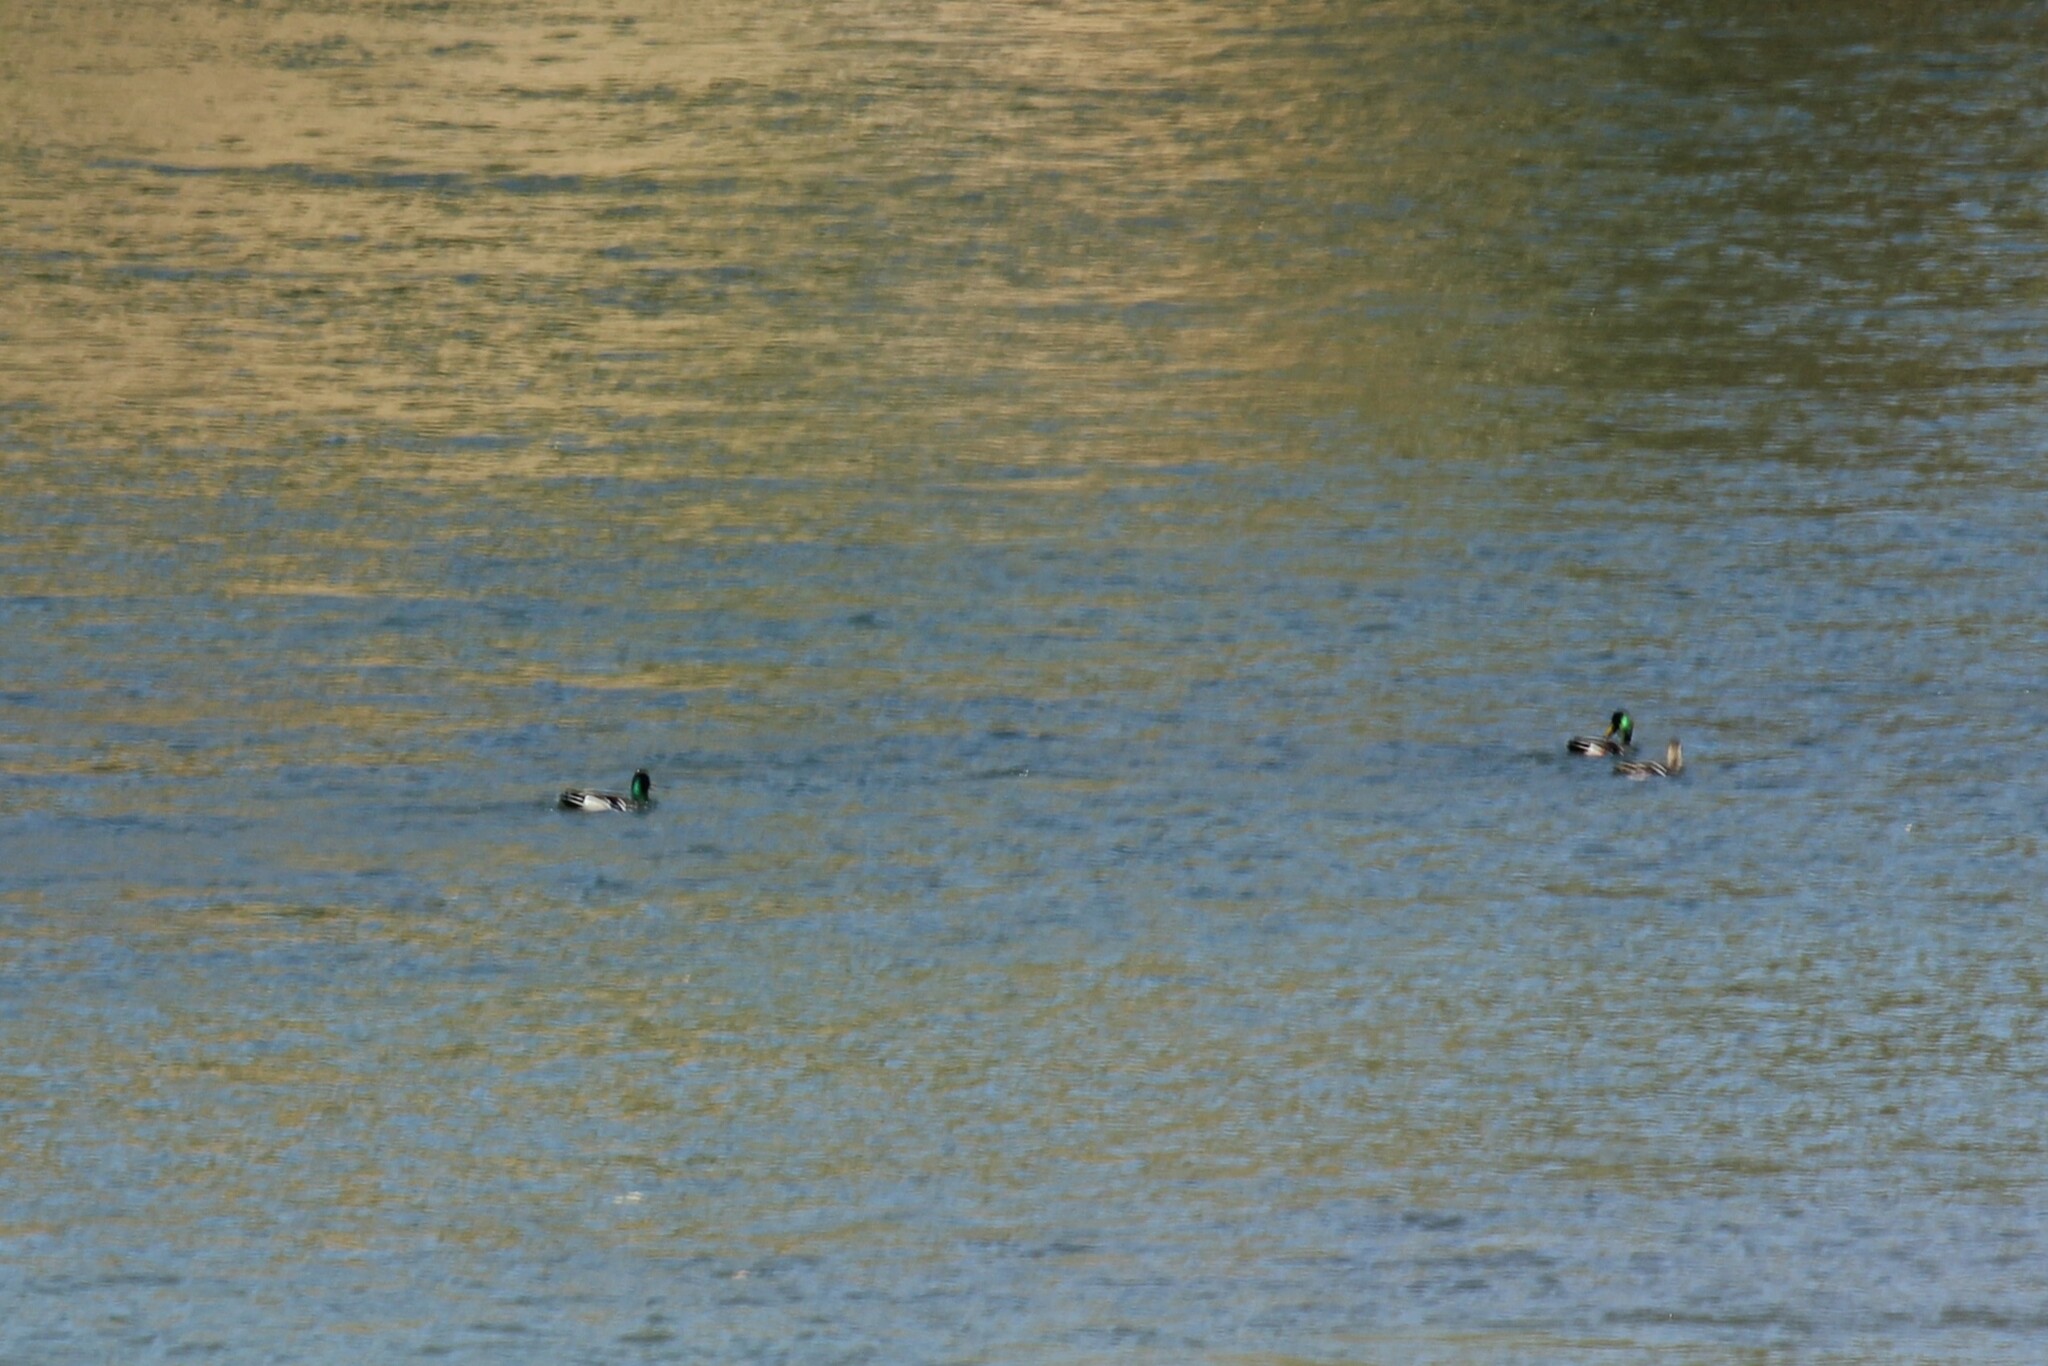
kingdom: Animalia
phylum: Chordata
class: Aves
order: Anseriformes
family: Anatidae
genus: Anas
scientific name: Anas platyrhynchos
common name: Mallard
